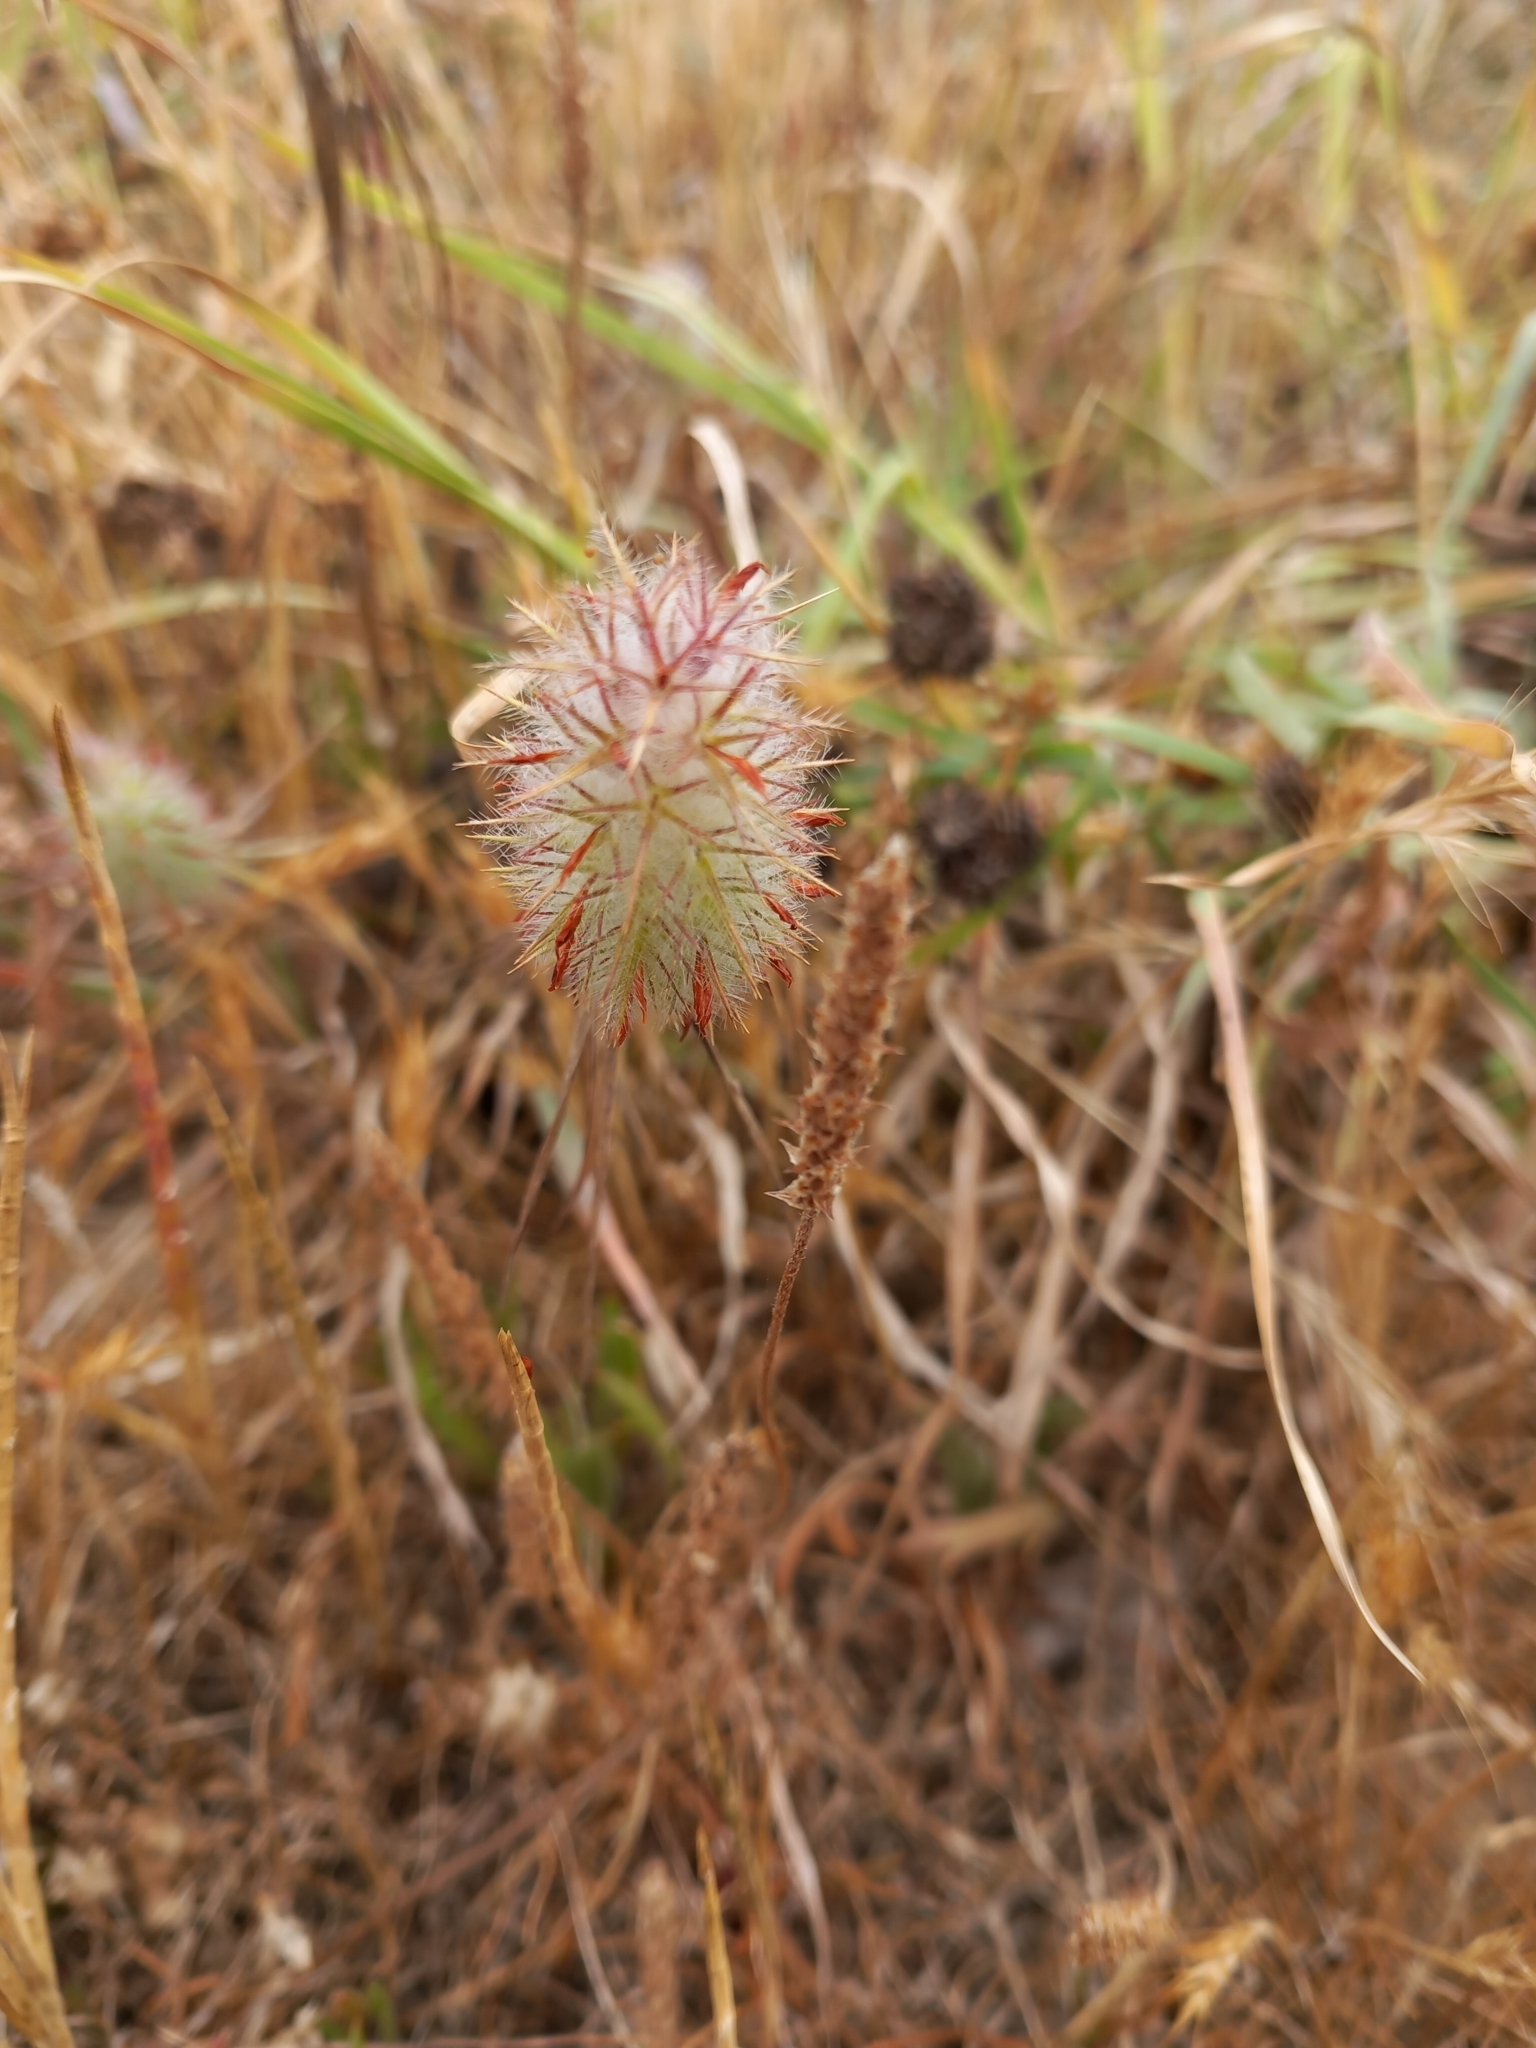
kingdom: Plantae
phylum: Tracheophyta
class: Magnoliopsida
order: Fabales
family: Fabaceae
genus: Trifolium
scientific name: Trifolium angustifolium
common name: Narrow clover
